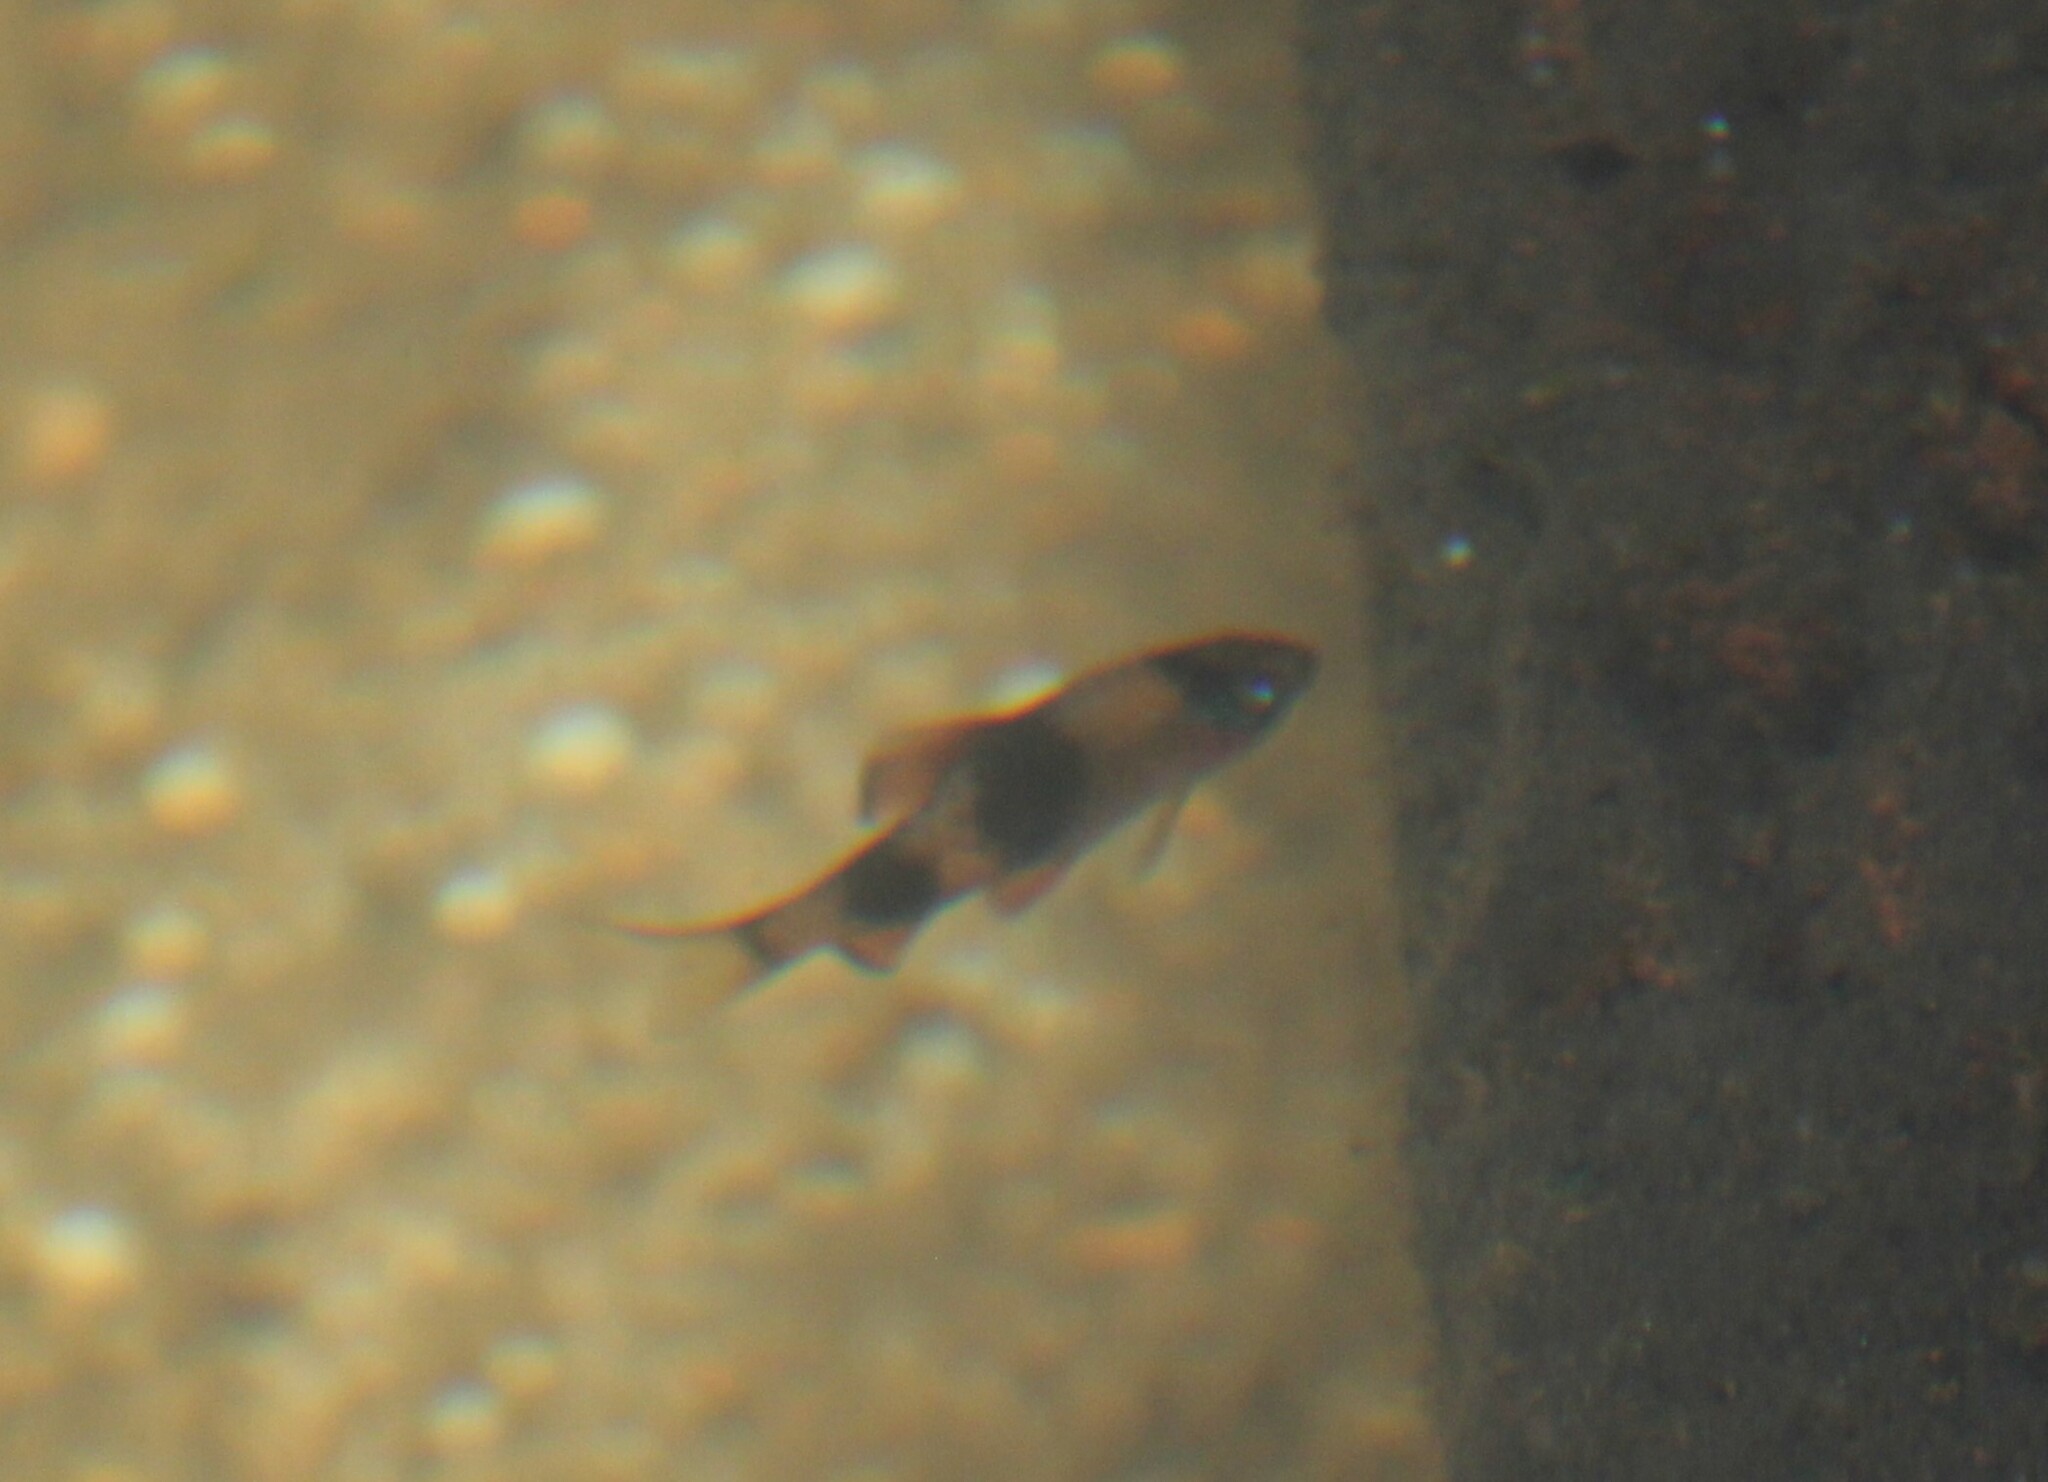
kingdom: Animalia
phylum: Chordata
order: Cypriniformes
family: Cyprinidae
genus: Haludaria
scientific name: Haludaria fasciata
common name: Melon barb
